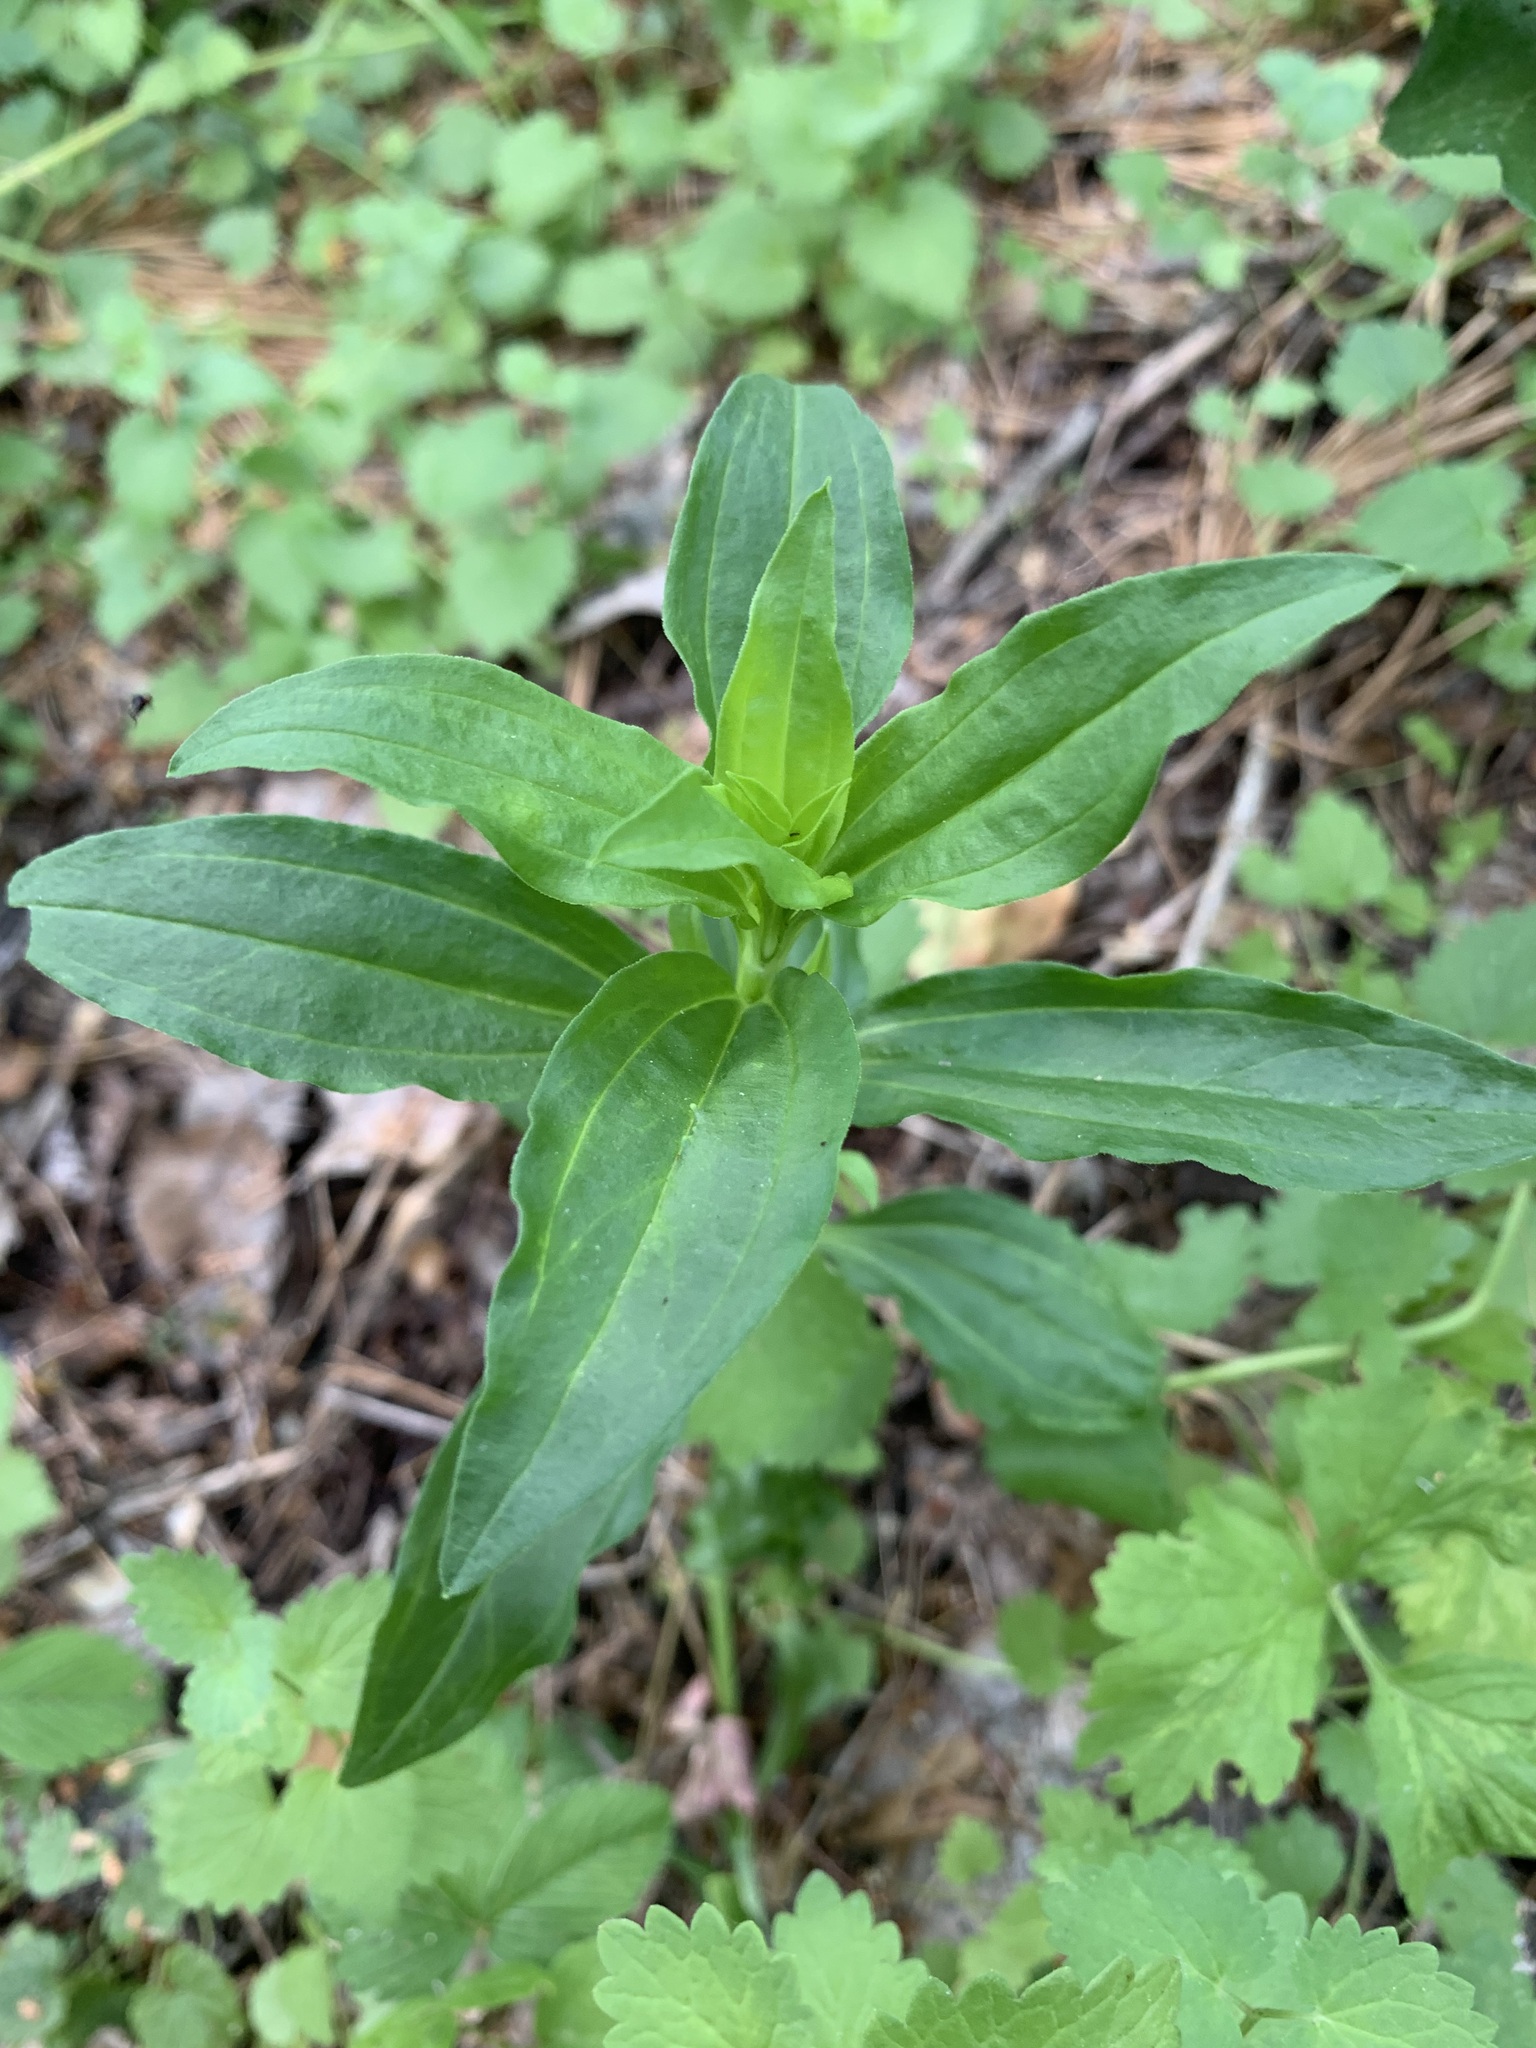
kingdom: Plantae
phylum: Tracheophyta
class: Magnoliopsida
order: Caryophyllales
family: Caryophyllaceae
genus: Saponaria
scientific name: Saponaria officinalis
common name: Soapwort
